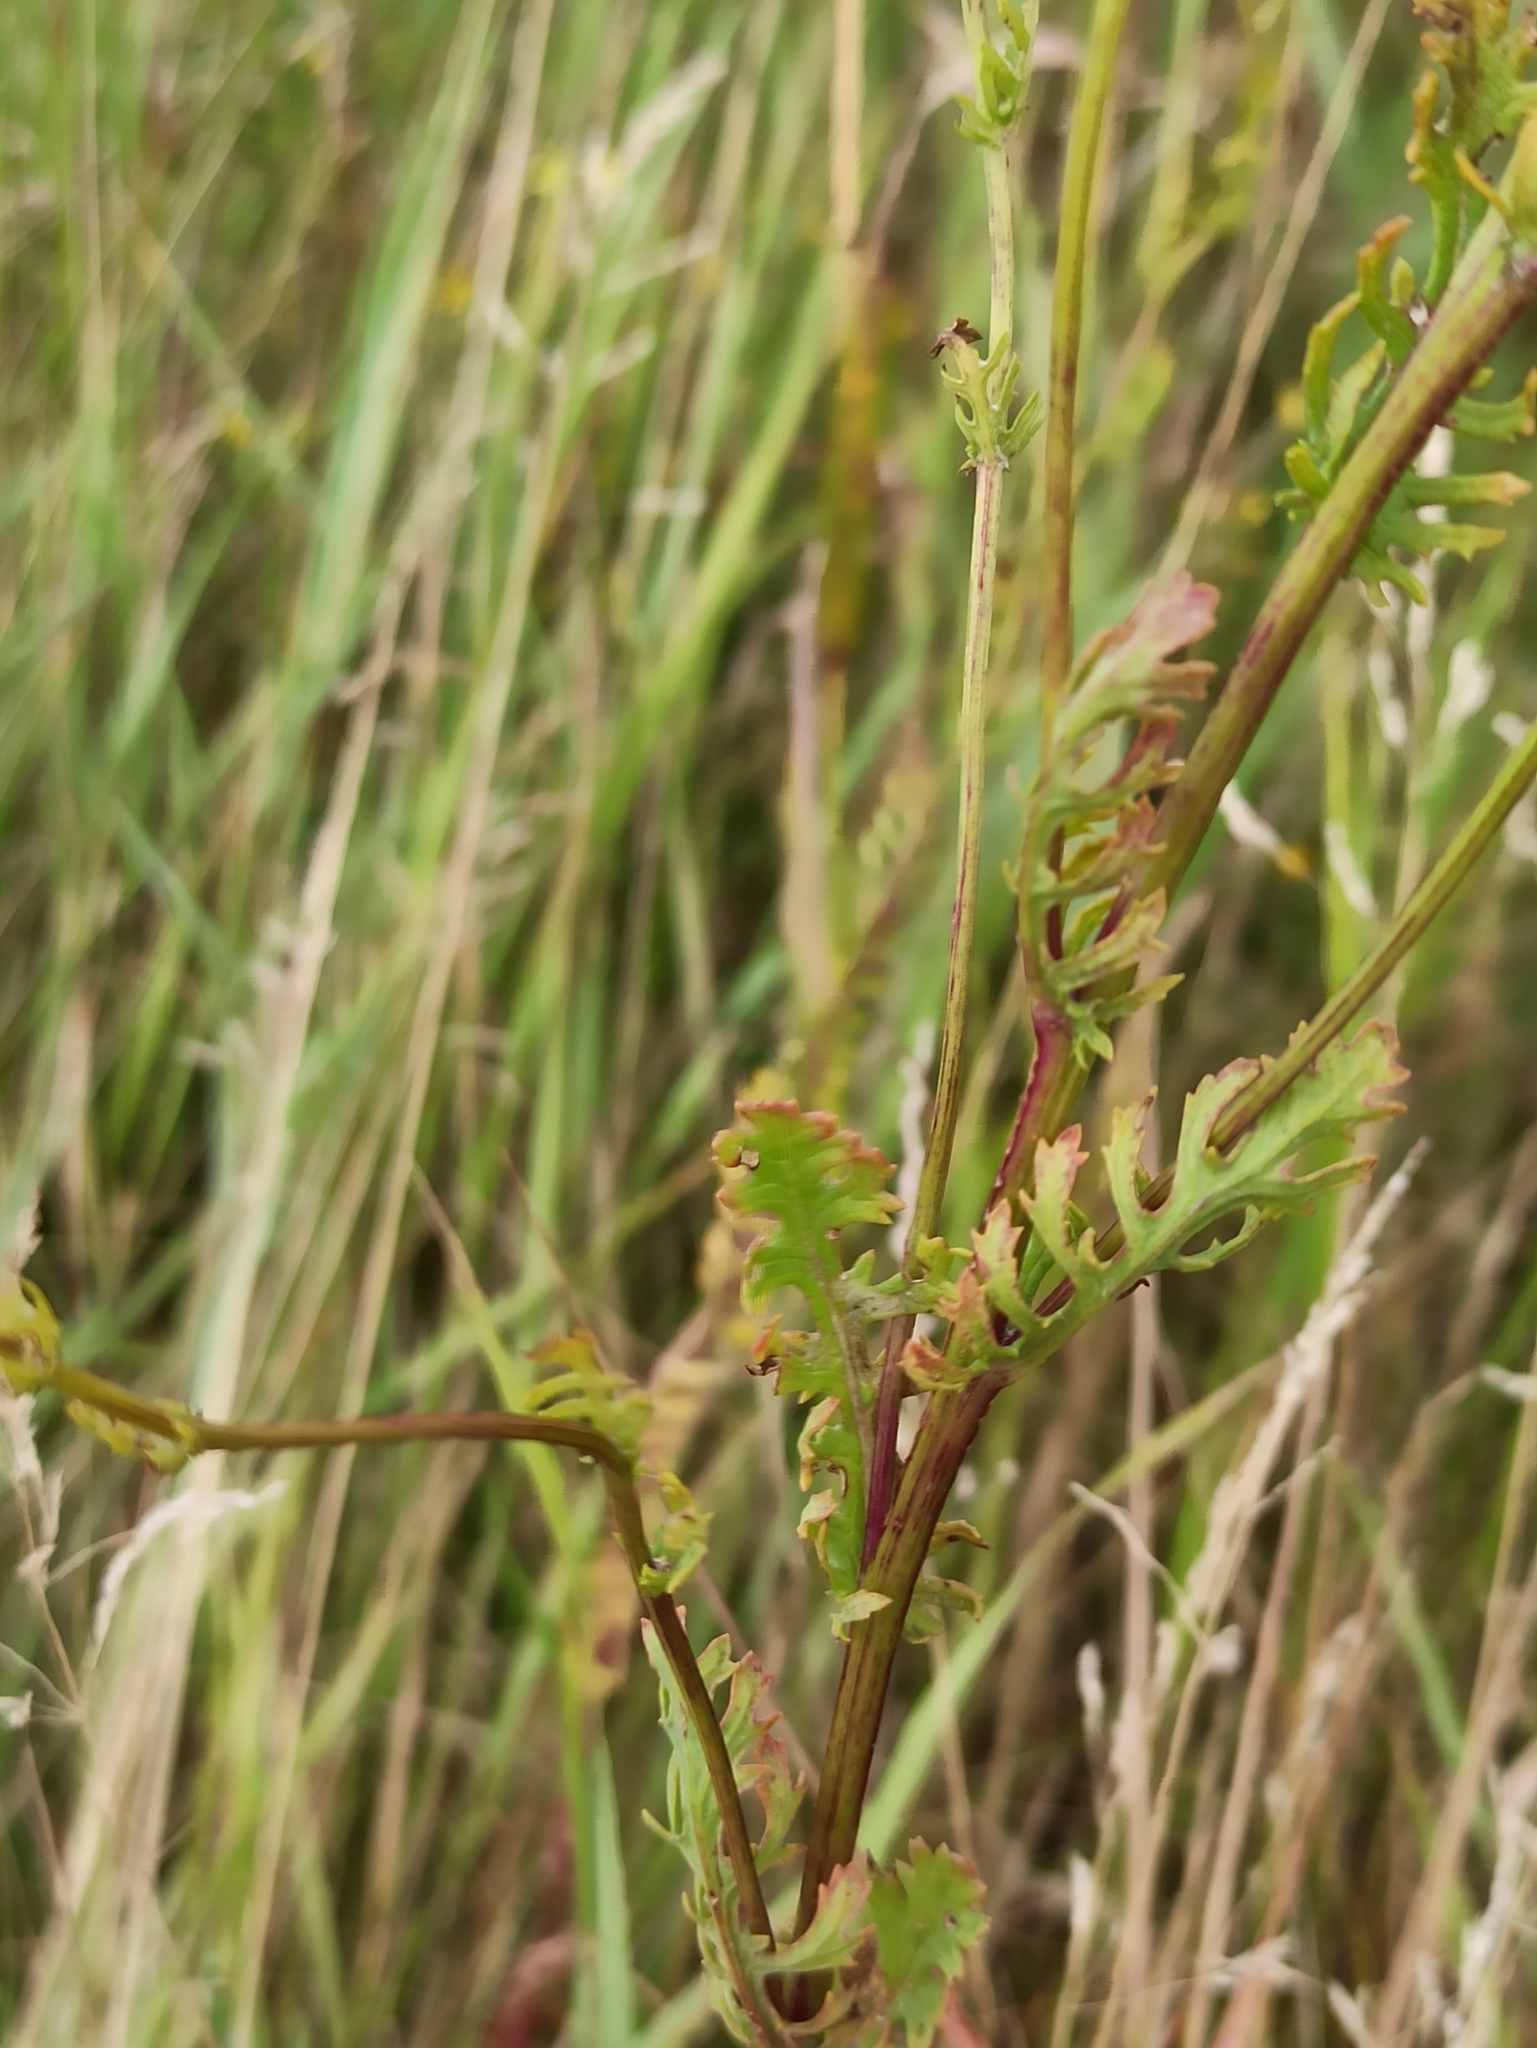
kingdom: Plantae
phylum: Tracheophyta
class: Magnoliopsida
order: Asterales
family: Asteraceae
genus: Jacobaea
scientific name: Jacobaea vulgaris
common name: Stinking willie
